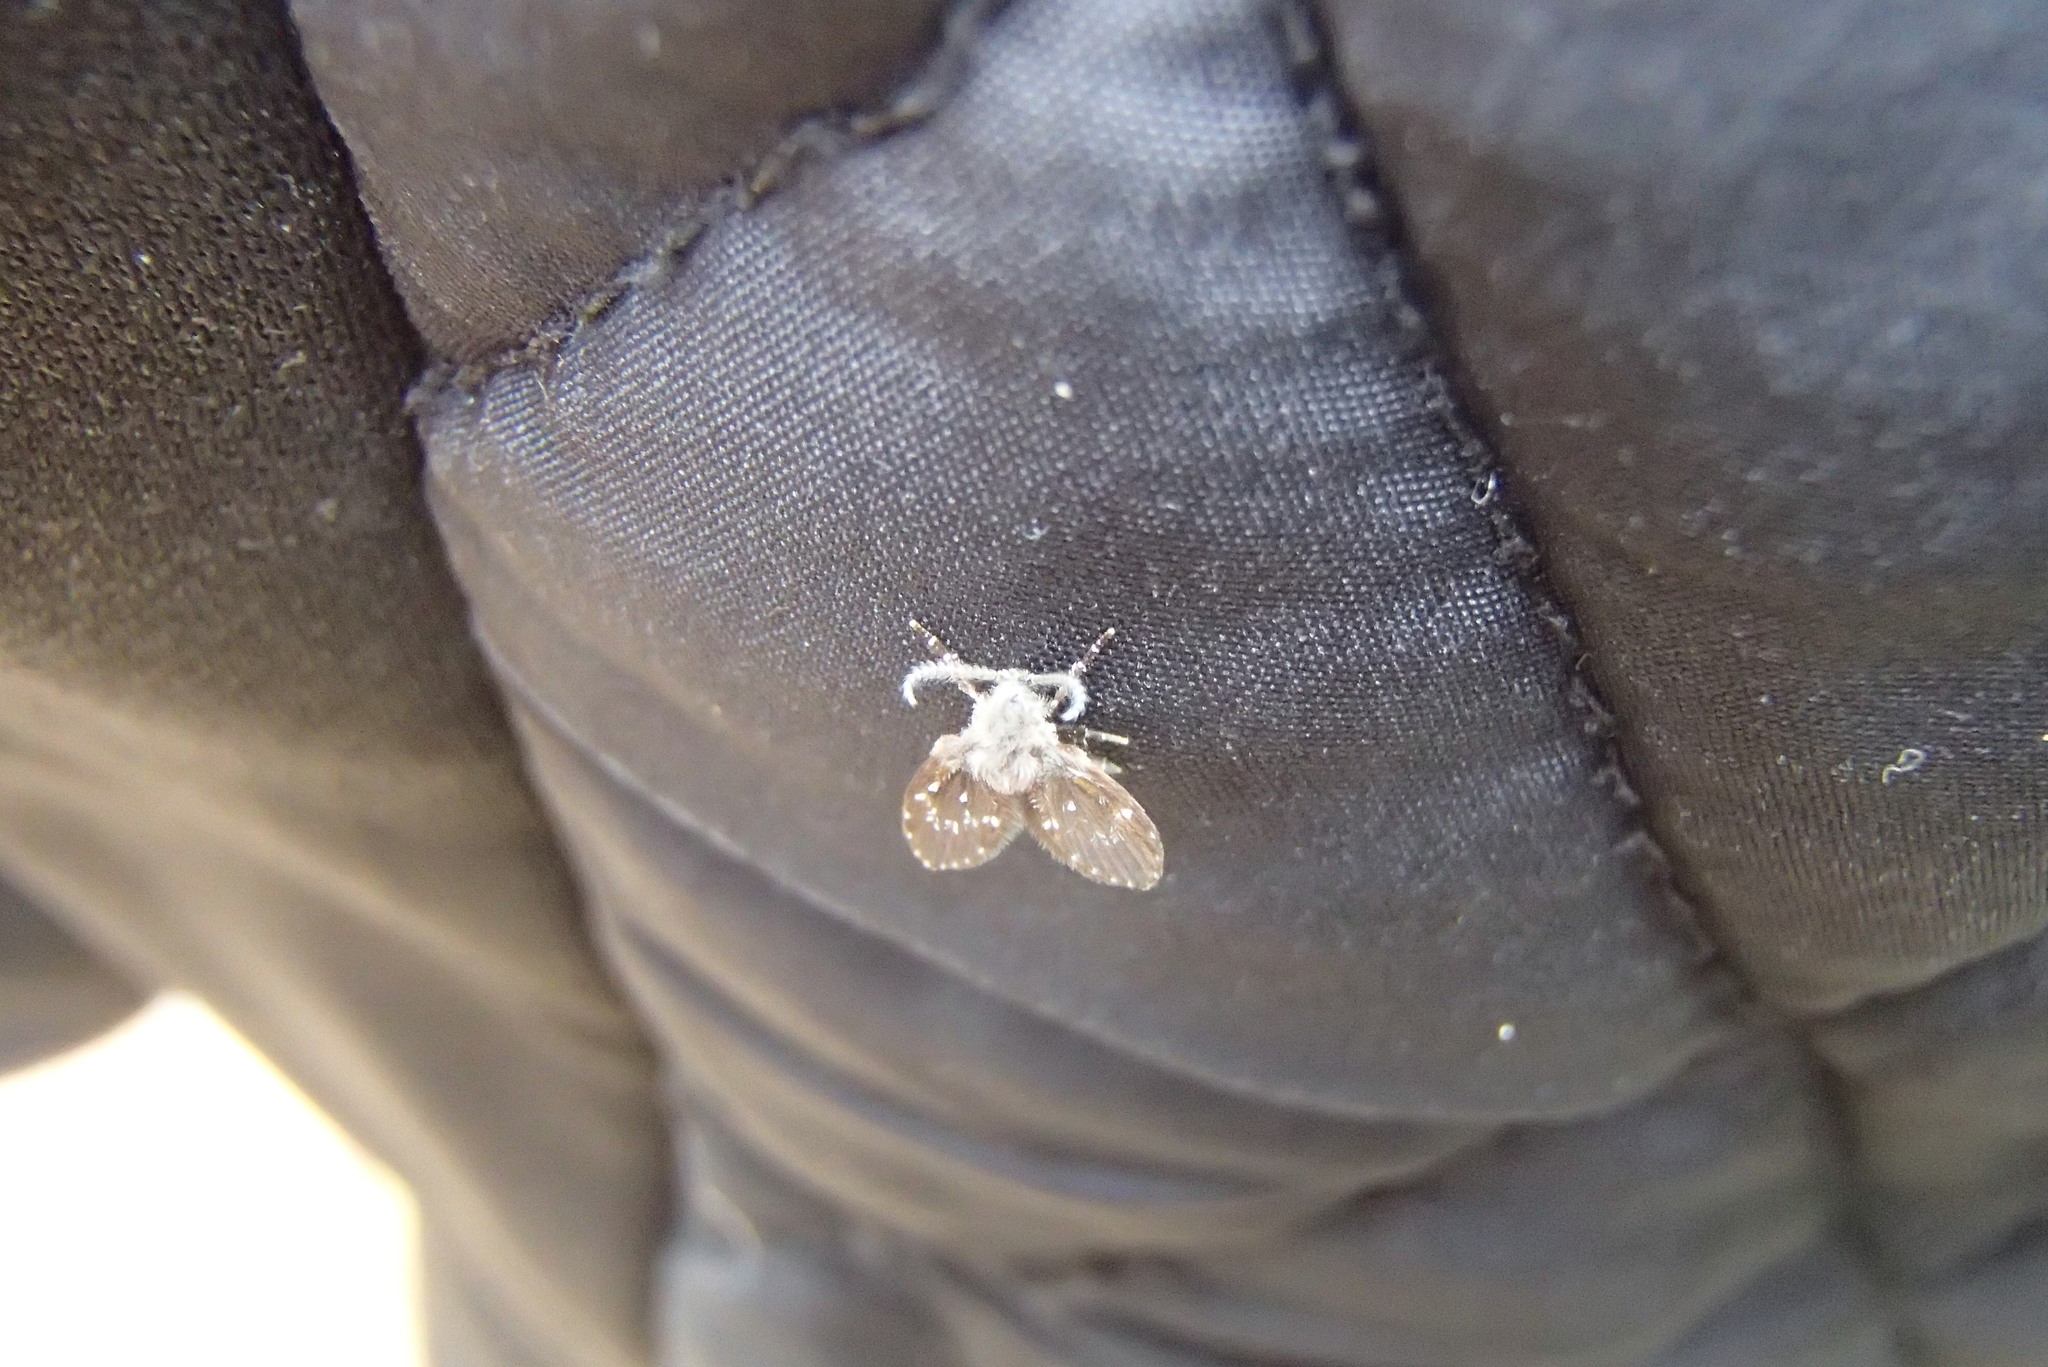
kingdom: Animalia
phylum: Arthropoda
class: Insecta
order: Diptera
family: Psychodidae
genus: Clogmia
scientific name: Clogmia albipunctatus
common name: White-spotted moth fly
